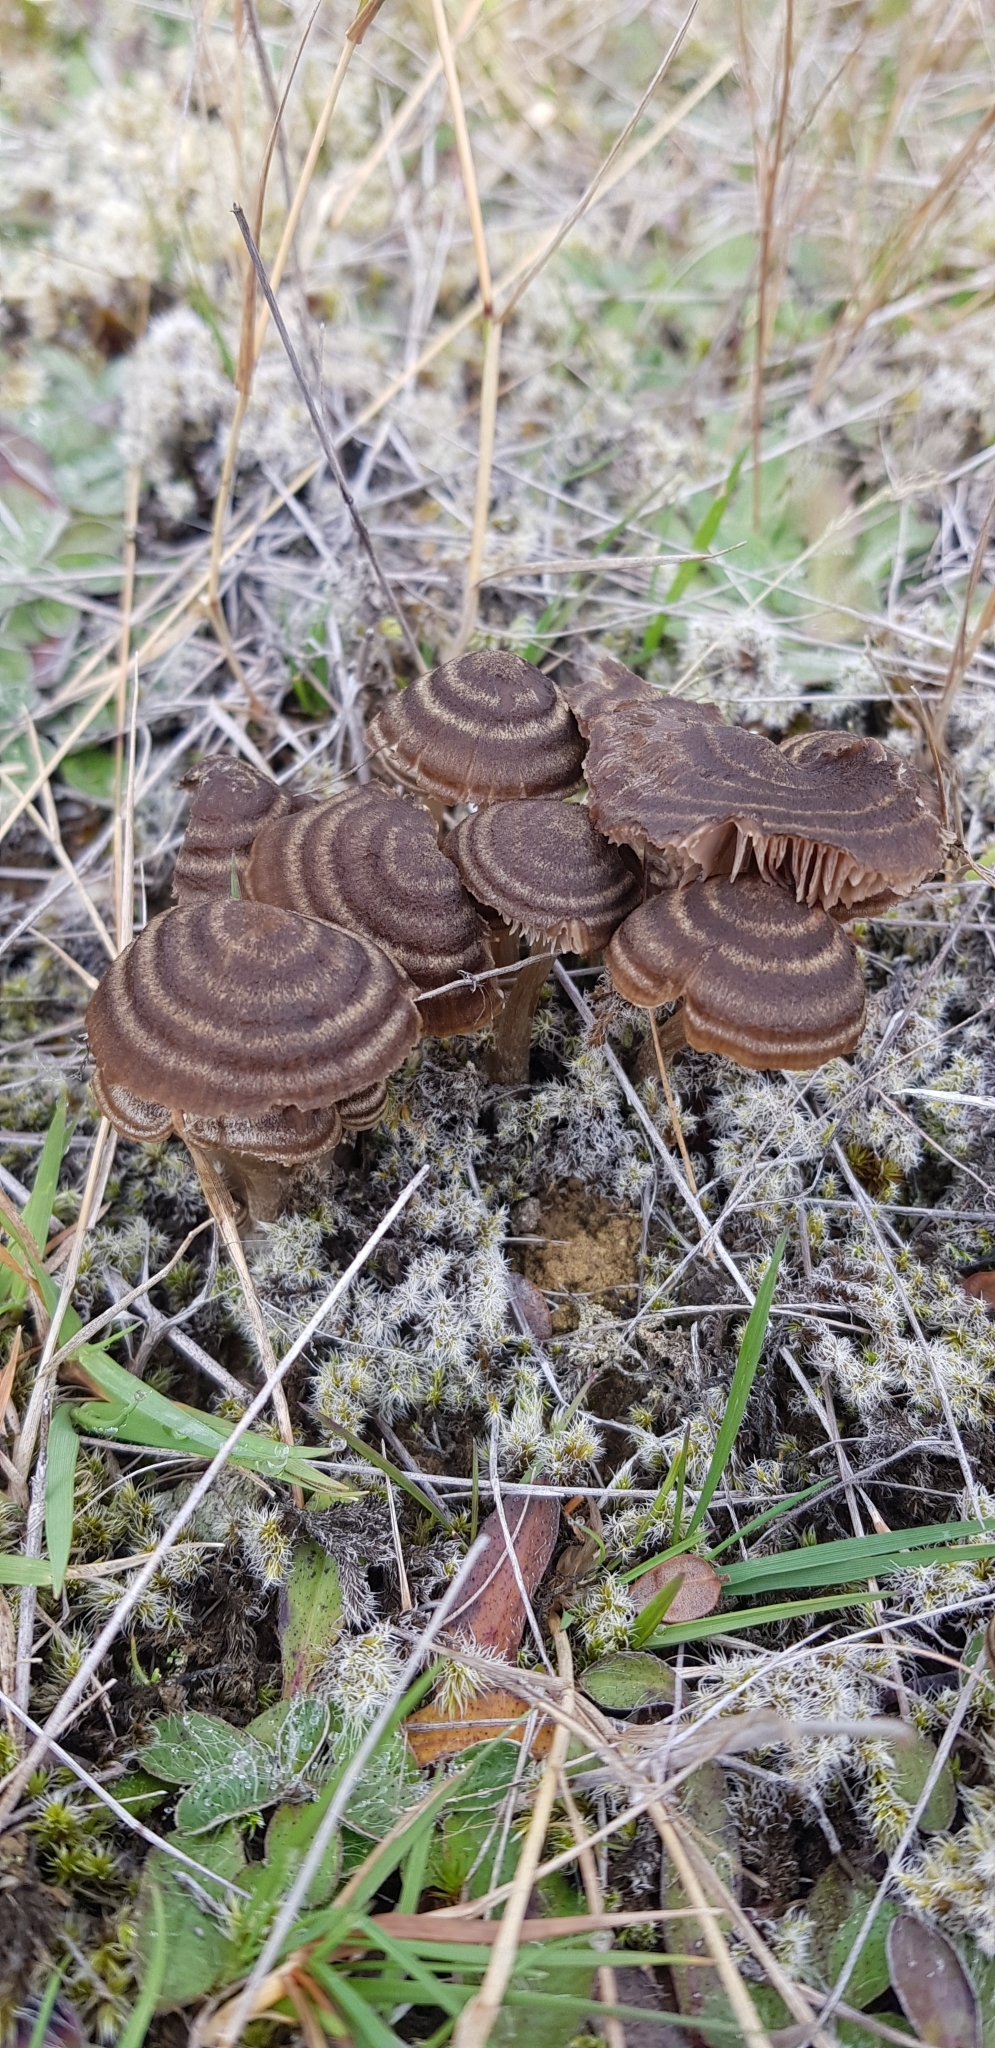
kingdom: Fungi
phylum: Basidiomycota
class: Agaricomycetes
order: Agaricales
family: Entolomataceae
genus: Entoloma
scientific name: Entoloma perzonatum
